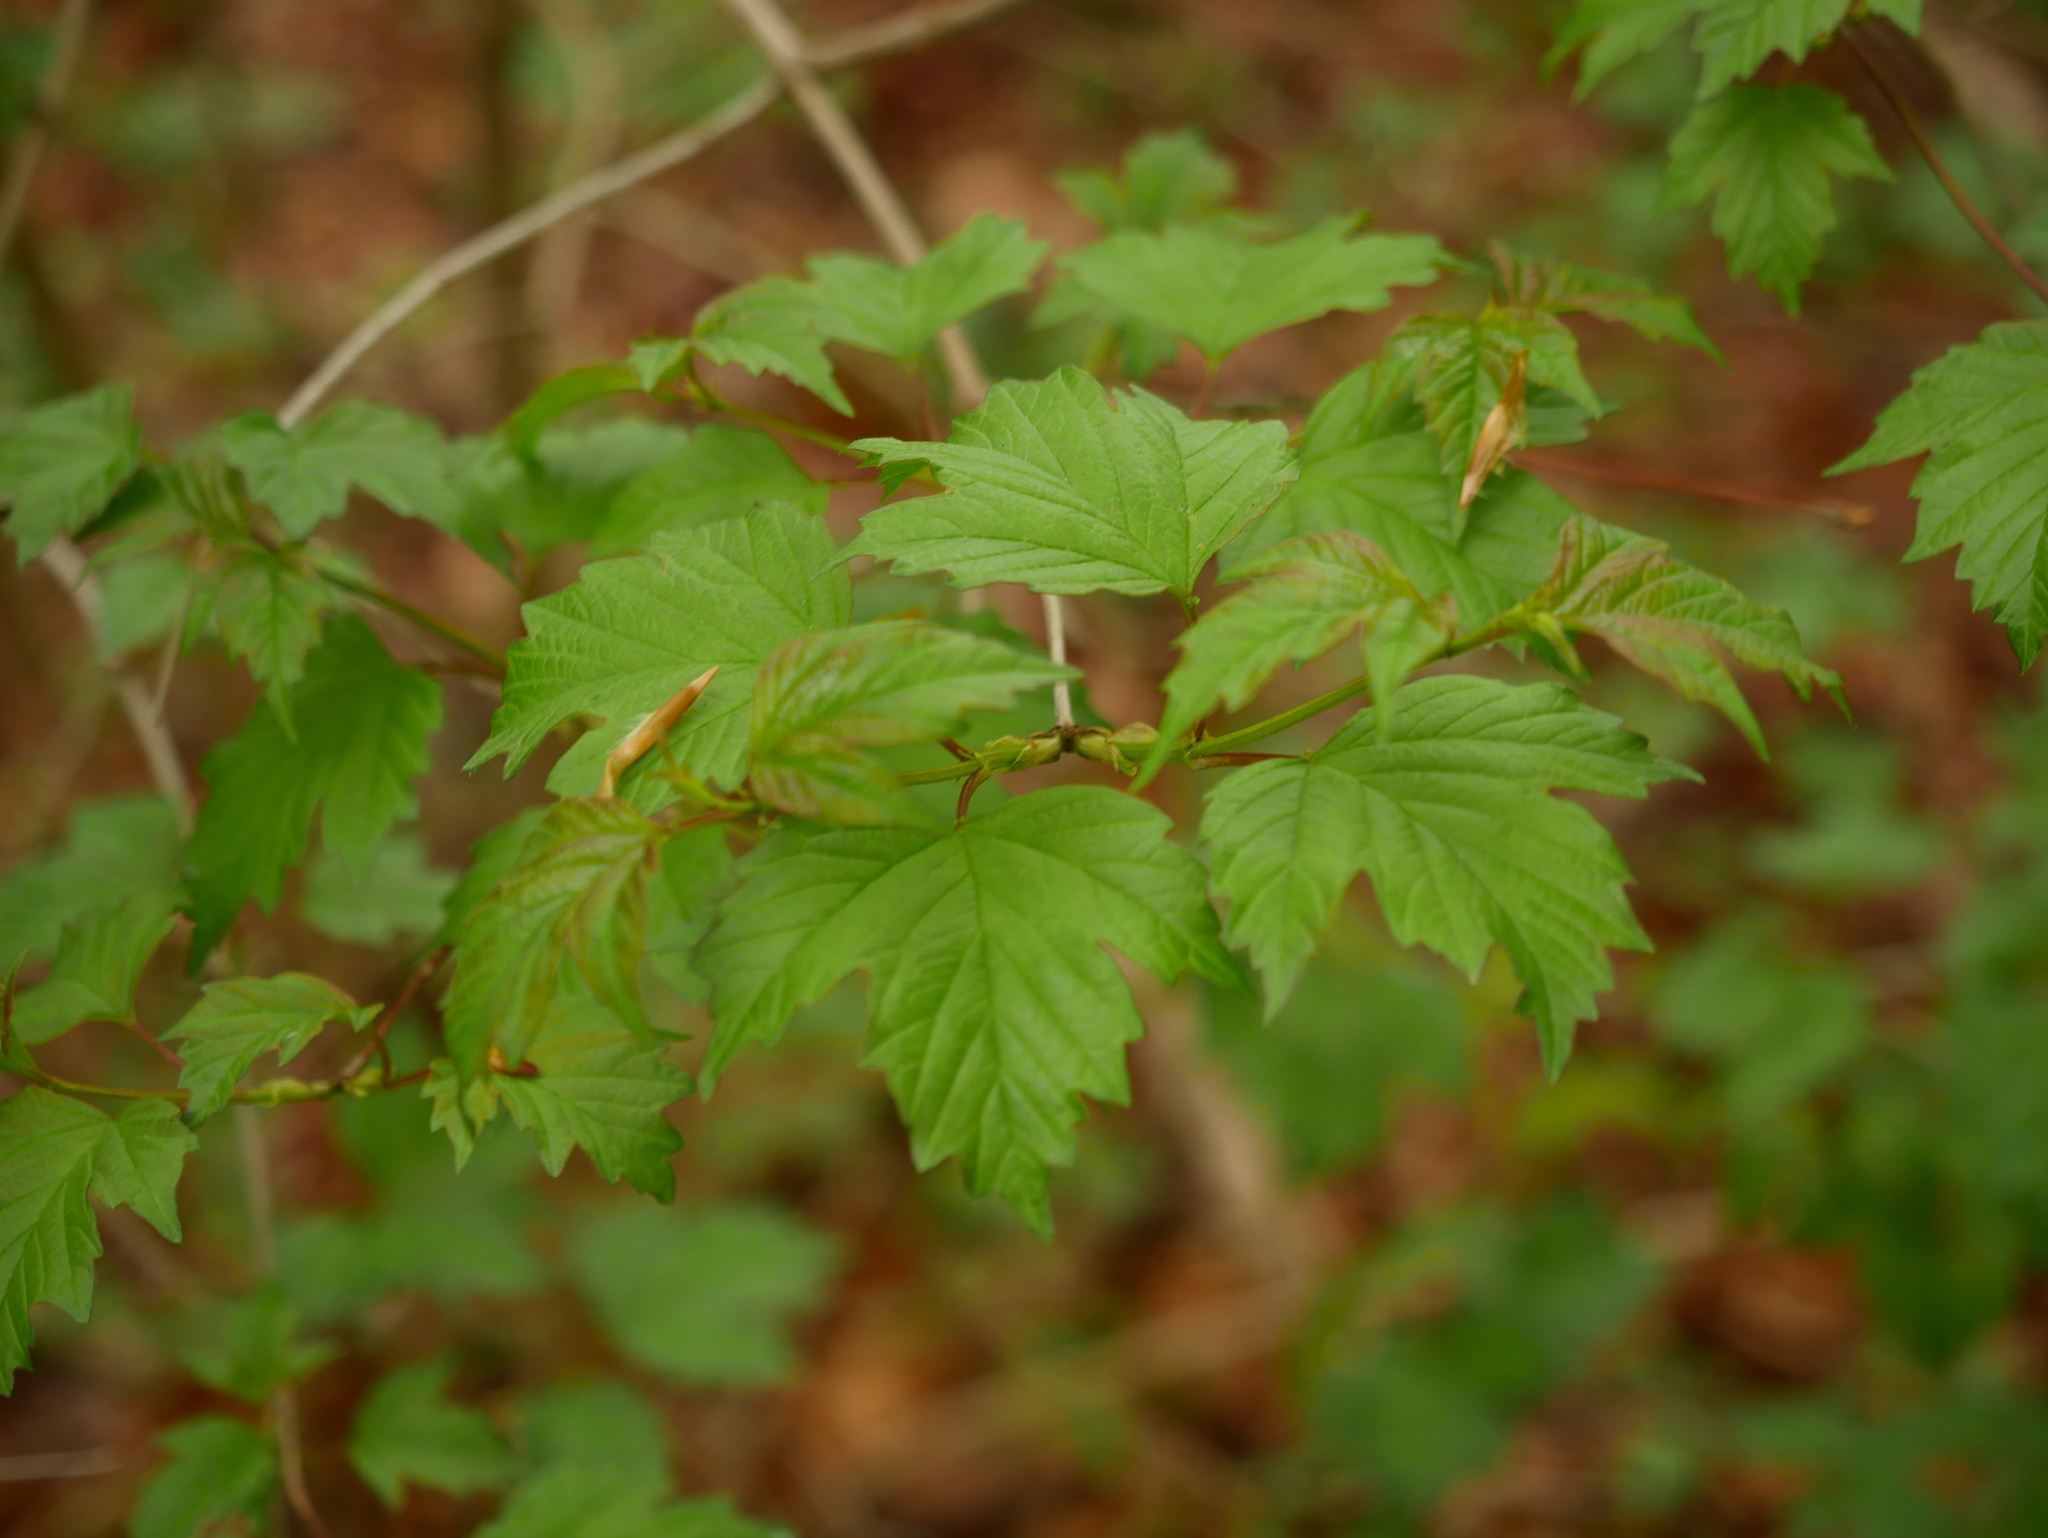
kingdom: Plantae
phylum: Tracheophyta
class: Magnoliopsida
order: Dipsacales
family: Viburnaceae
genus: Viburnum
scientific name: Viburnum opulus
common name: Guelder-rose
